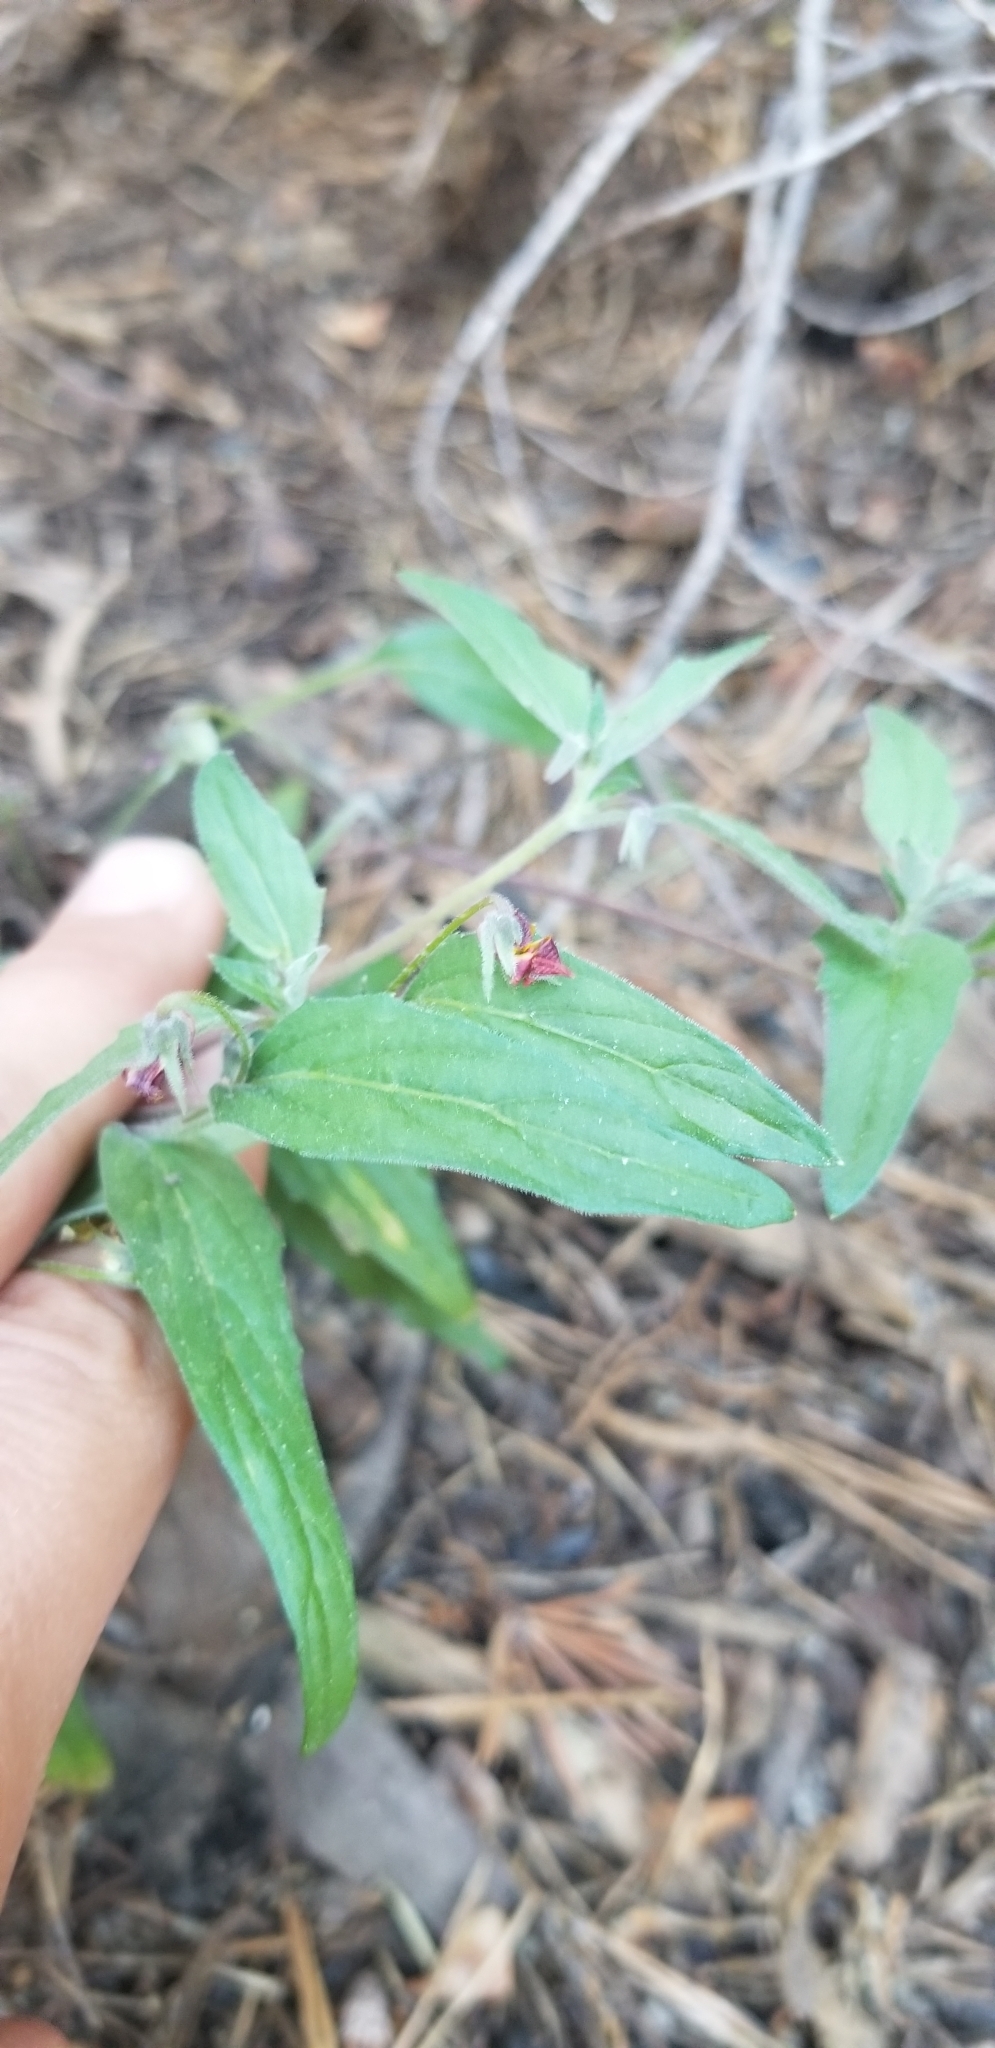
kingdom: Plantae
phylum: Tracheophyta
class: Magnoliopsida
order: Malpighiales
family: Violaceae
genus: Viola
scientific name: Viola pinetorum
